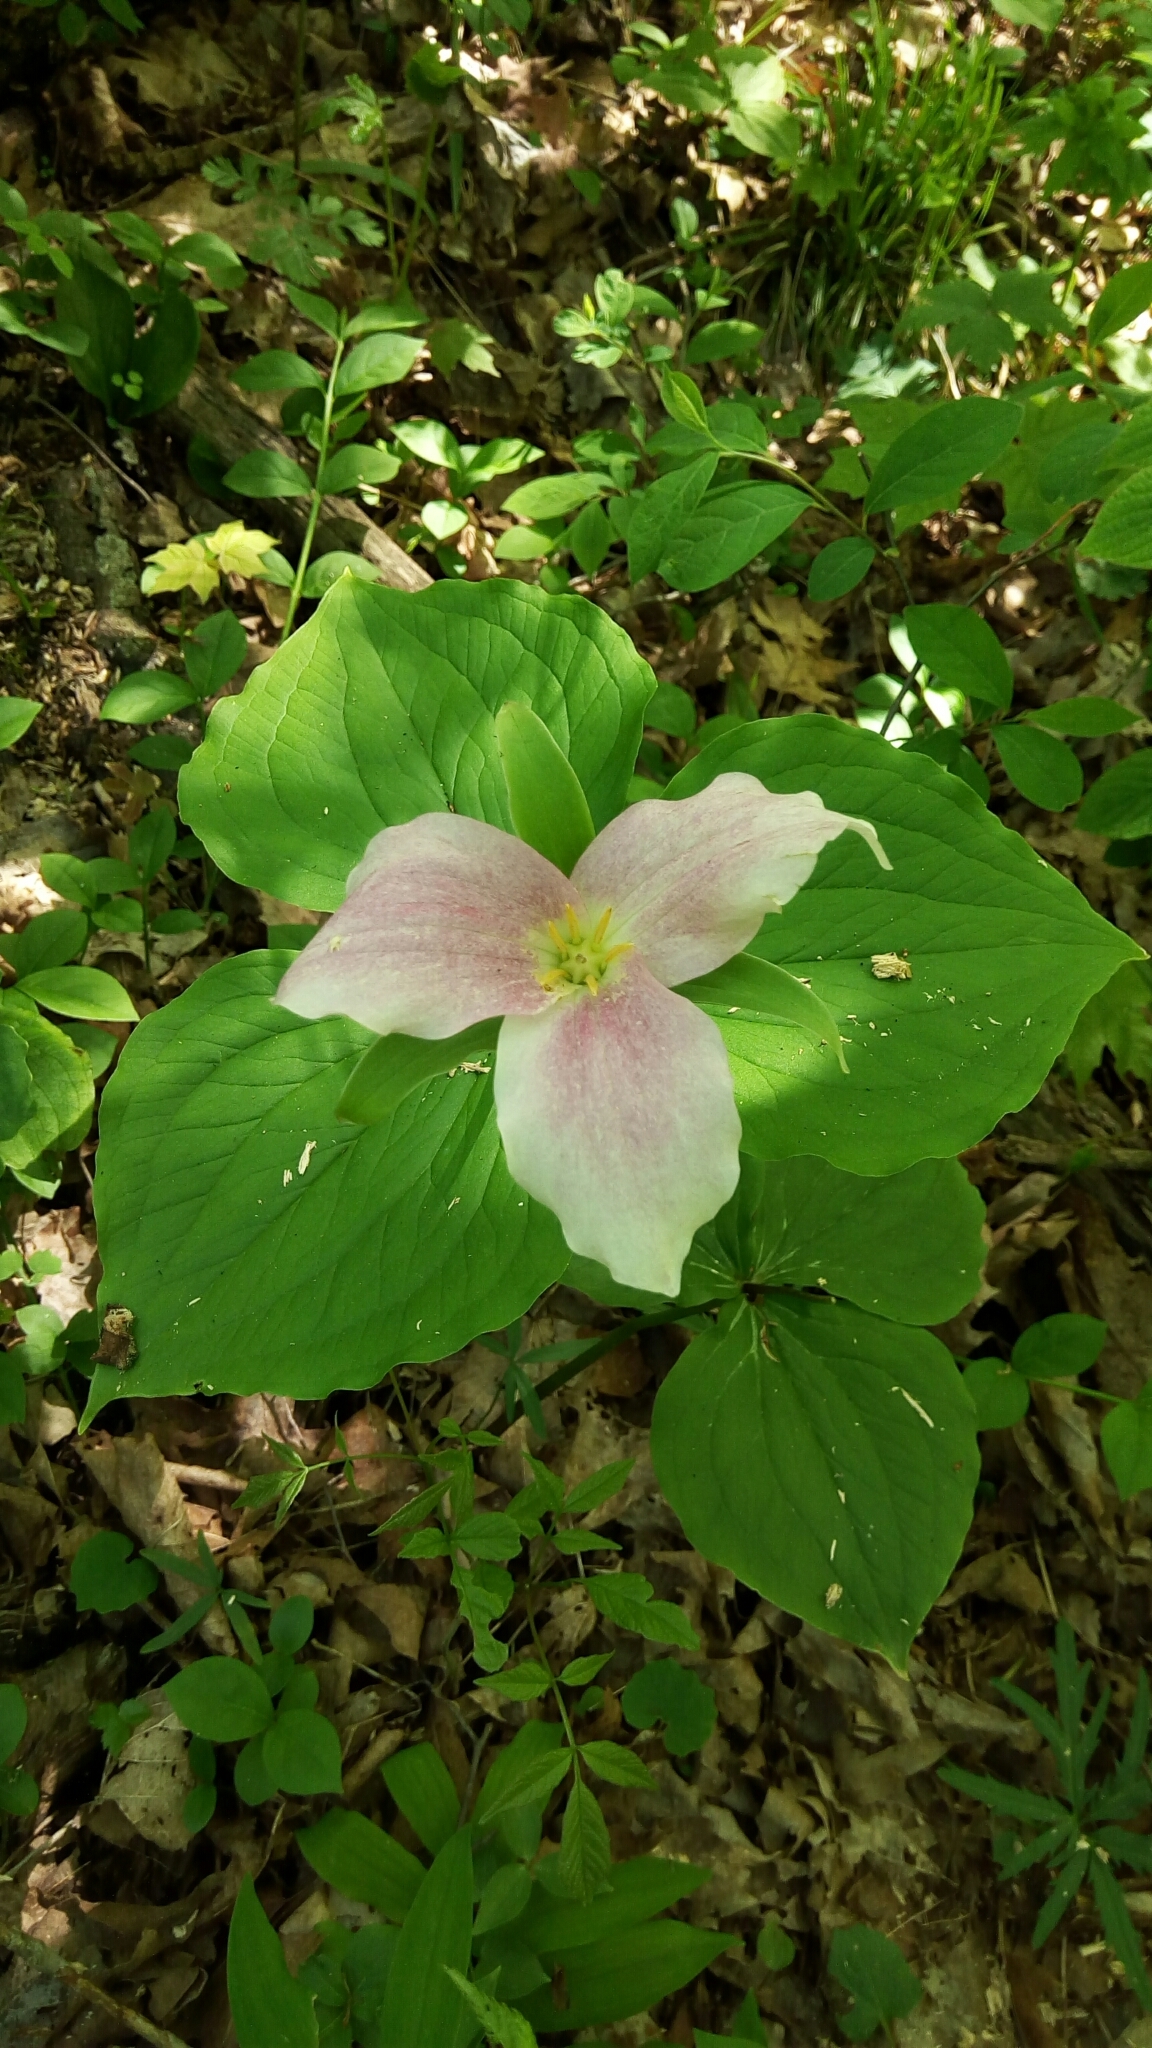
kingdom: Plantae
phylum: Tracheophyta
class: Liliopsida
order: Liliales
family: Melanthiaceae
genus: Trillium
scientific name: Trillium grandiflorum
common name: Great white trillium
